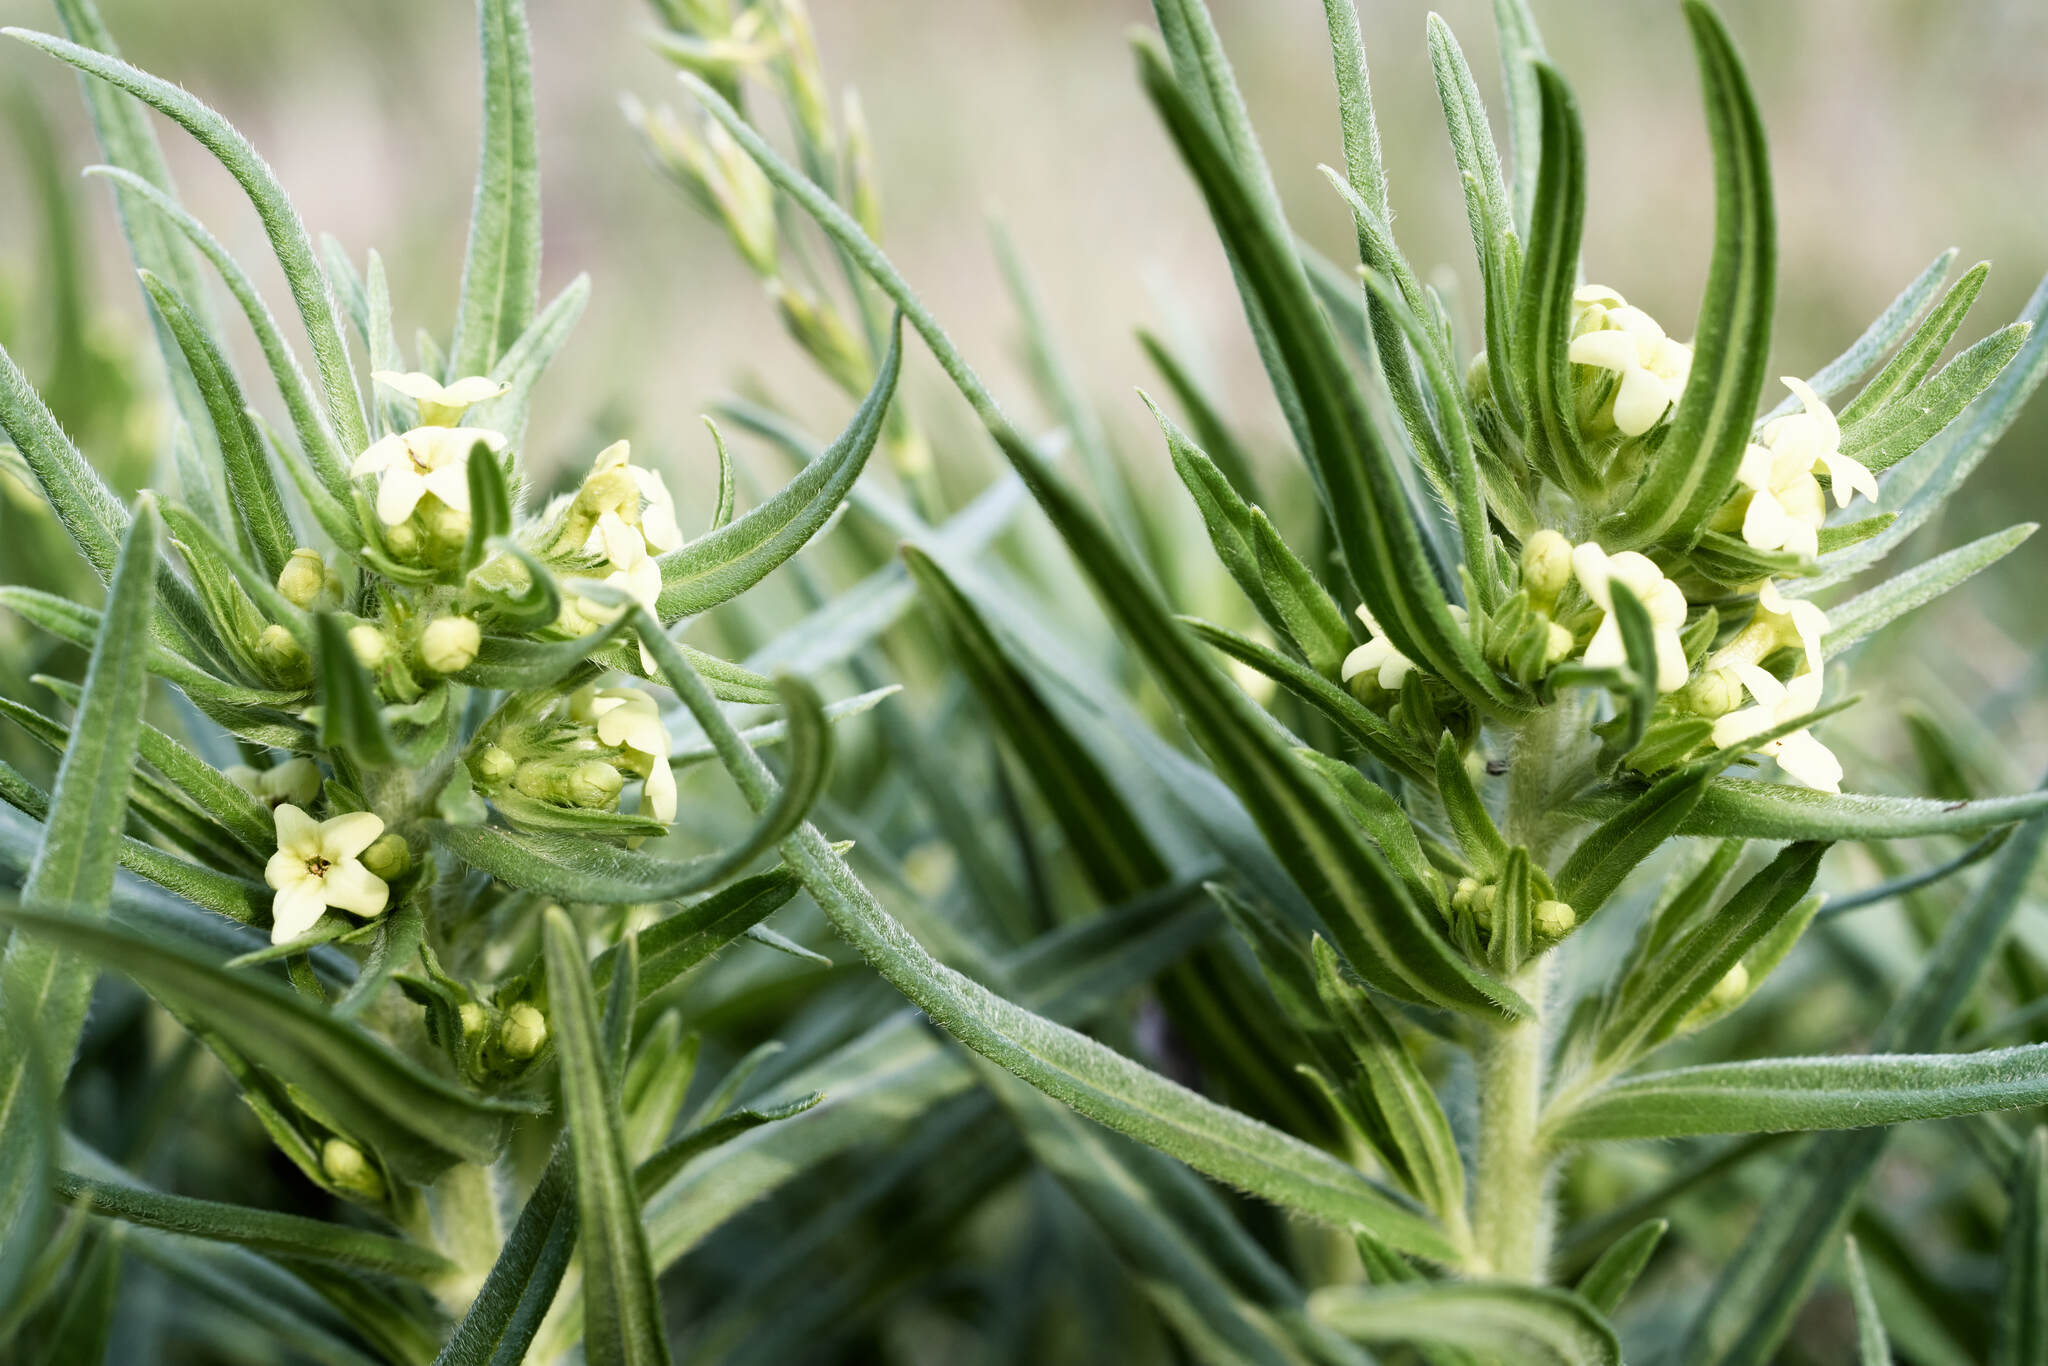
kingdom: Plantae
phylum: Tracheophyta
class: Magnoliopsida
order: Boraginales
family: Boraginaceae
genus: Lithospermum
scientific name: Lithospermum ruderale
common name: Western gromwell
